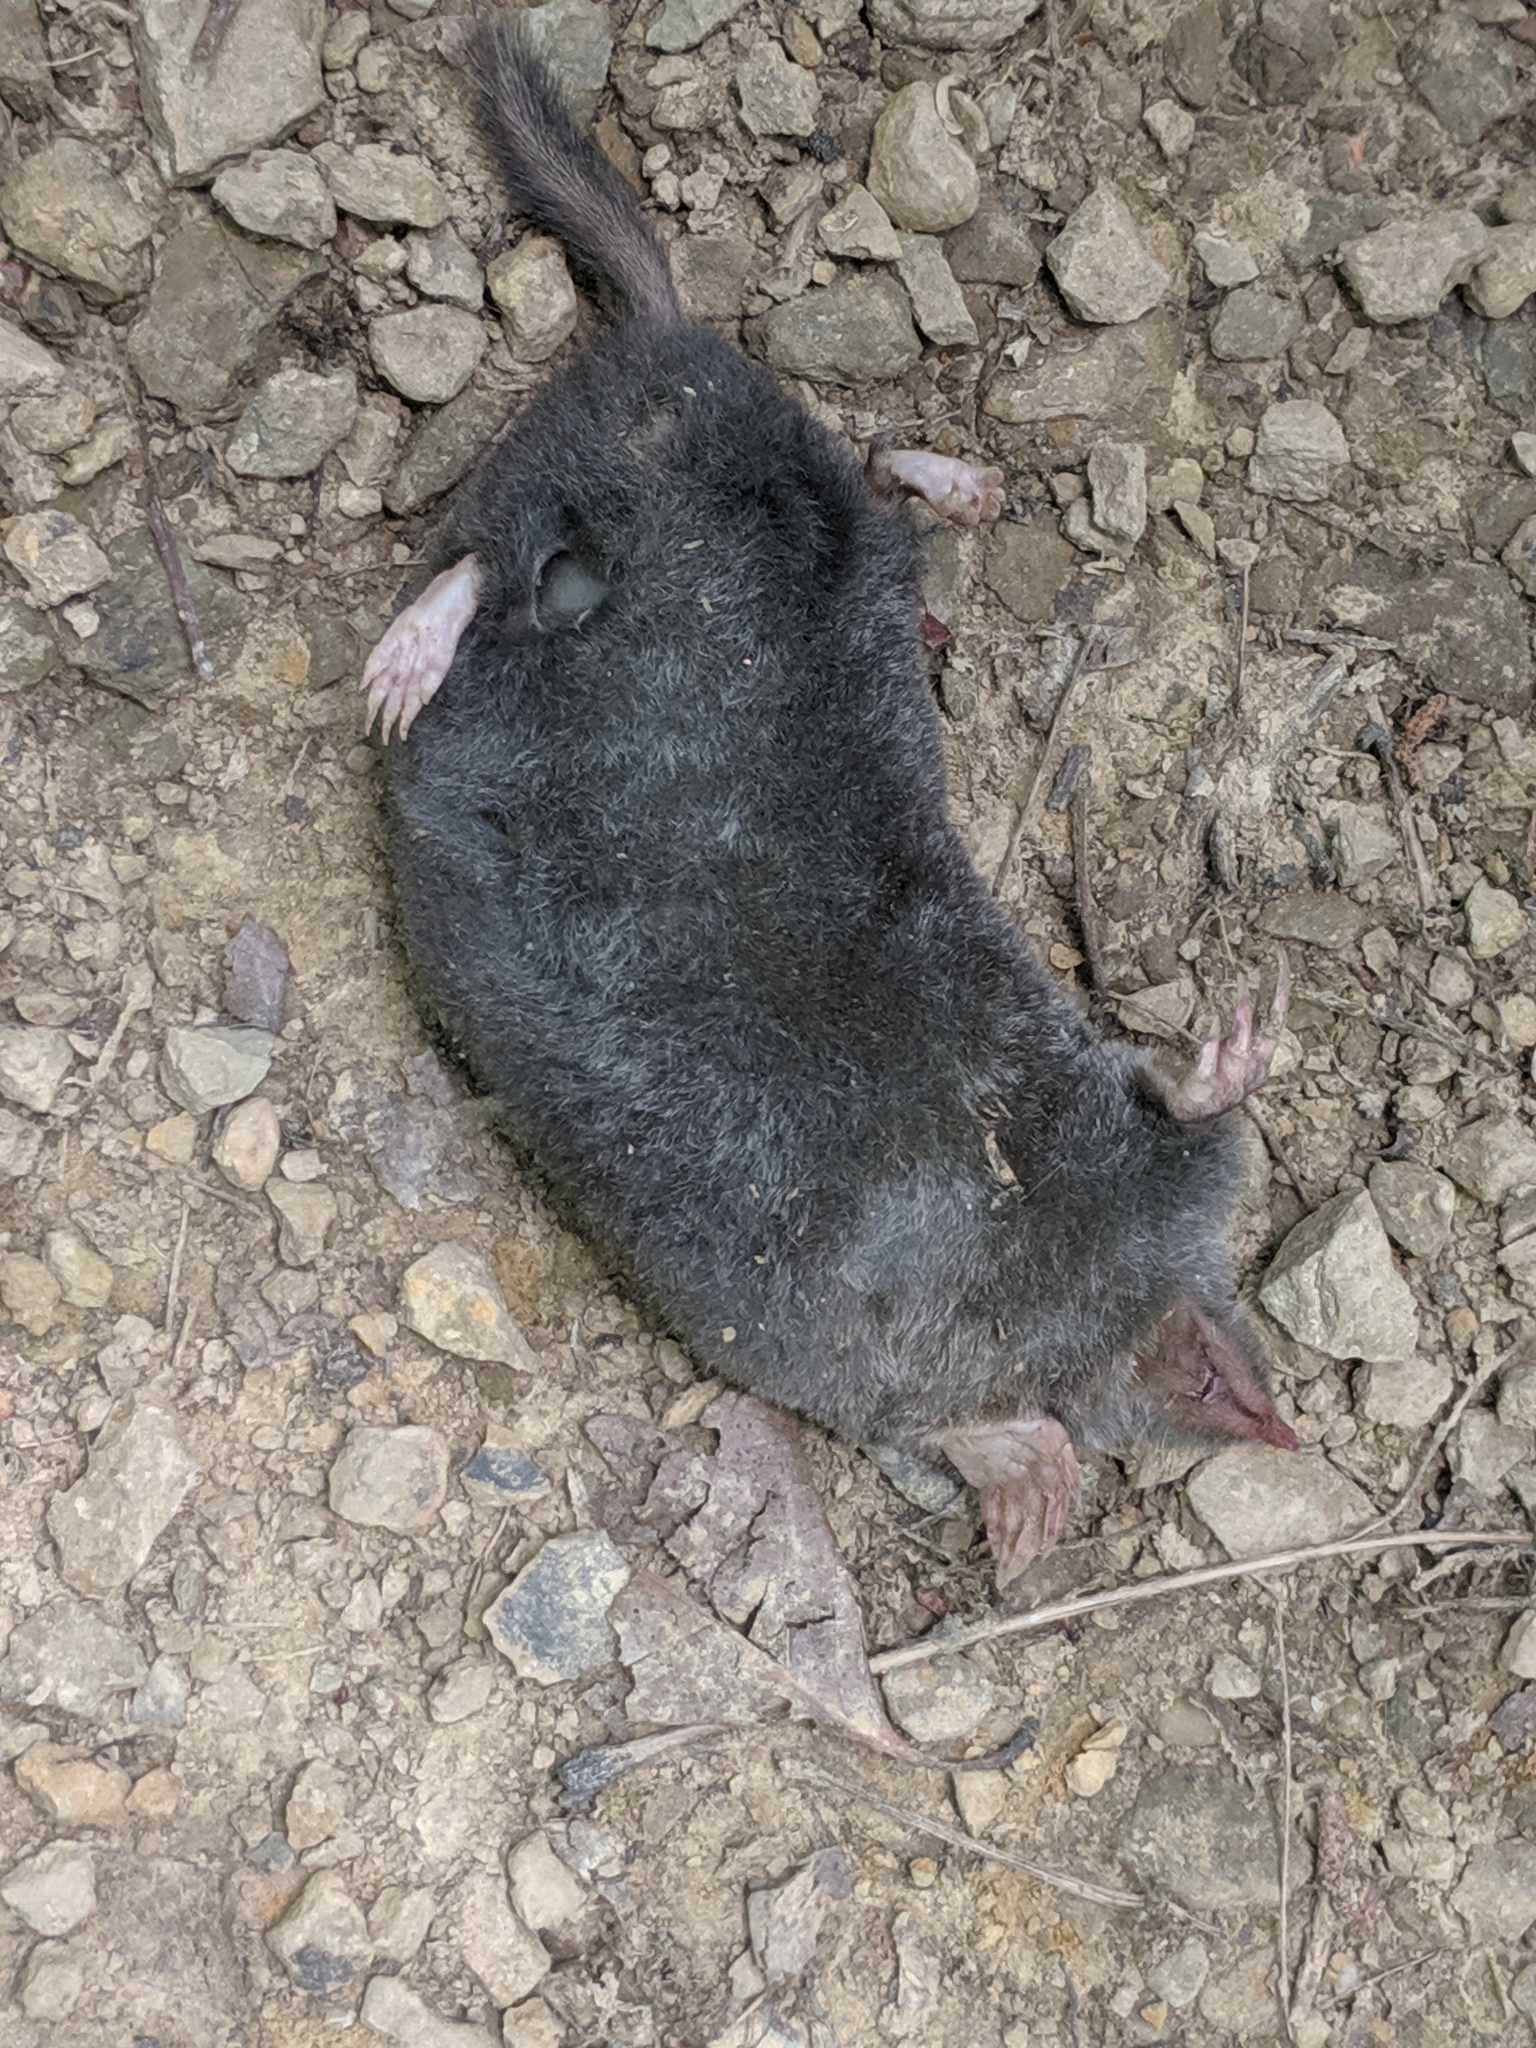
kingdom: Animalia
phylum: Chordata
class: Mammalia
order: Soricomorpha
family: Talpidae
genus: Parascalops
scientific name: Parascalops breweri
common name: Hairy-tailed mole
